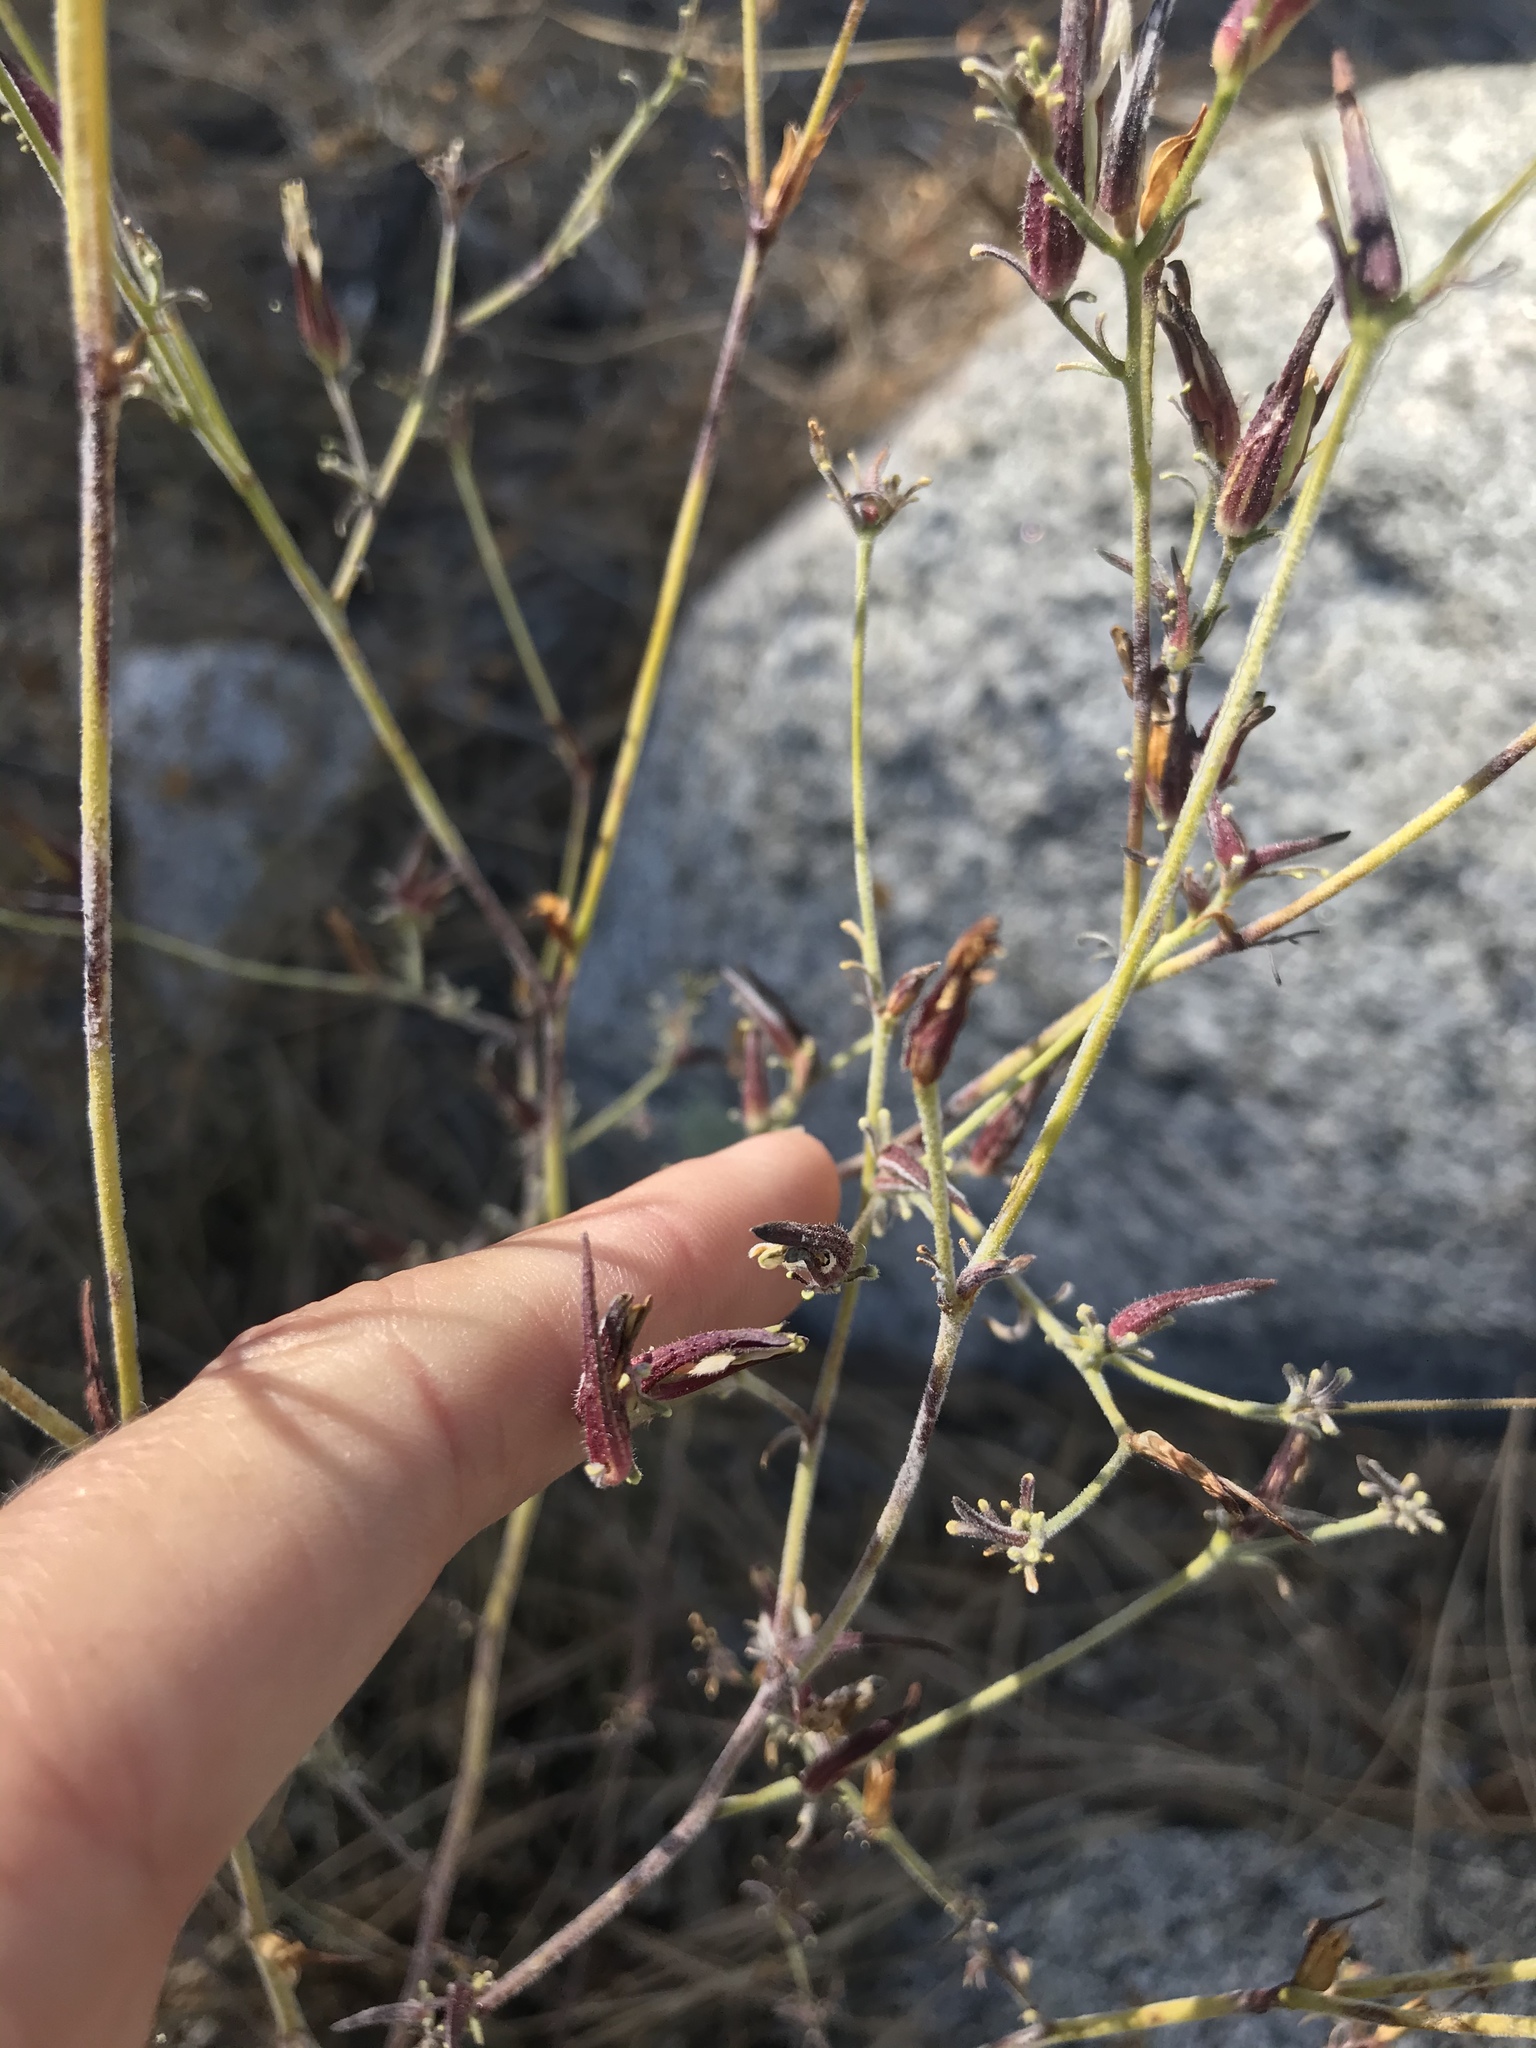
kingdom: Plantae
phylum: Tracheophyta
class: Magnoliopsida
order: Lamiales
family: Orobanchaceae
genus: Cordylanthus
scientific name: Cordylanthus rigidus
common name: Stiff-branch bird's-beak
